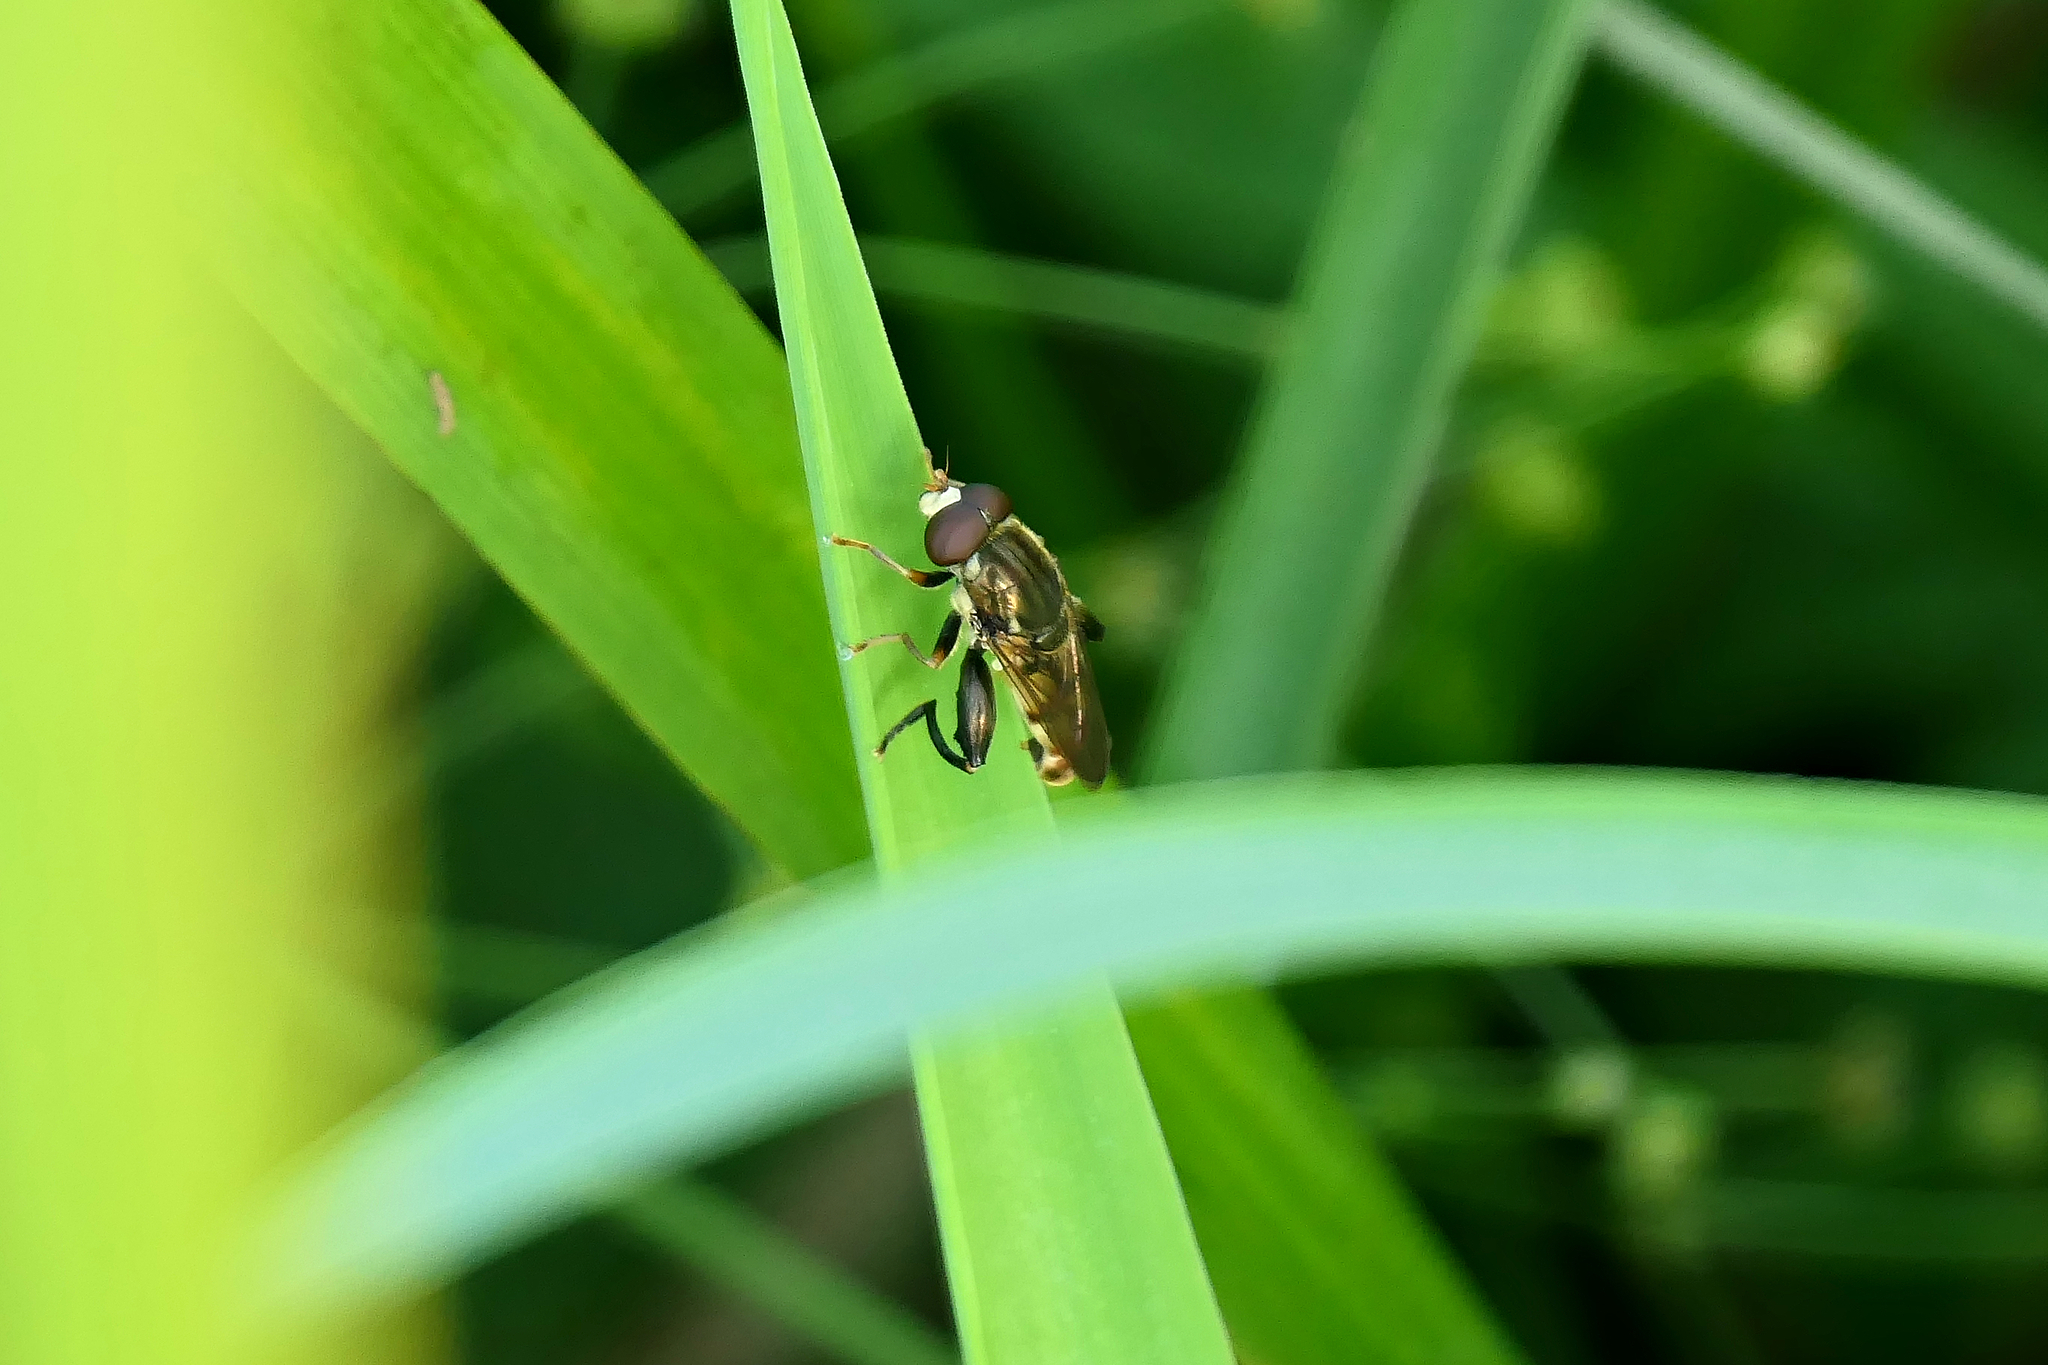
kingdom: Animalia
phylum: Arthropoda
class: Insecta
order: Diptera
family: Syrphidae
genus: Tropidia
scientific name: Tropidia quadrata
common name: Common thick-legged fly
